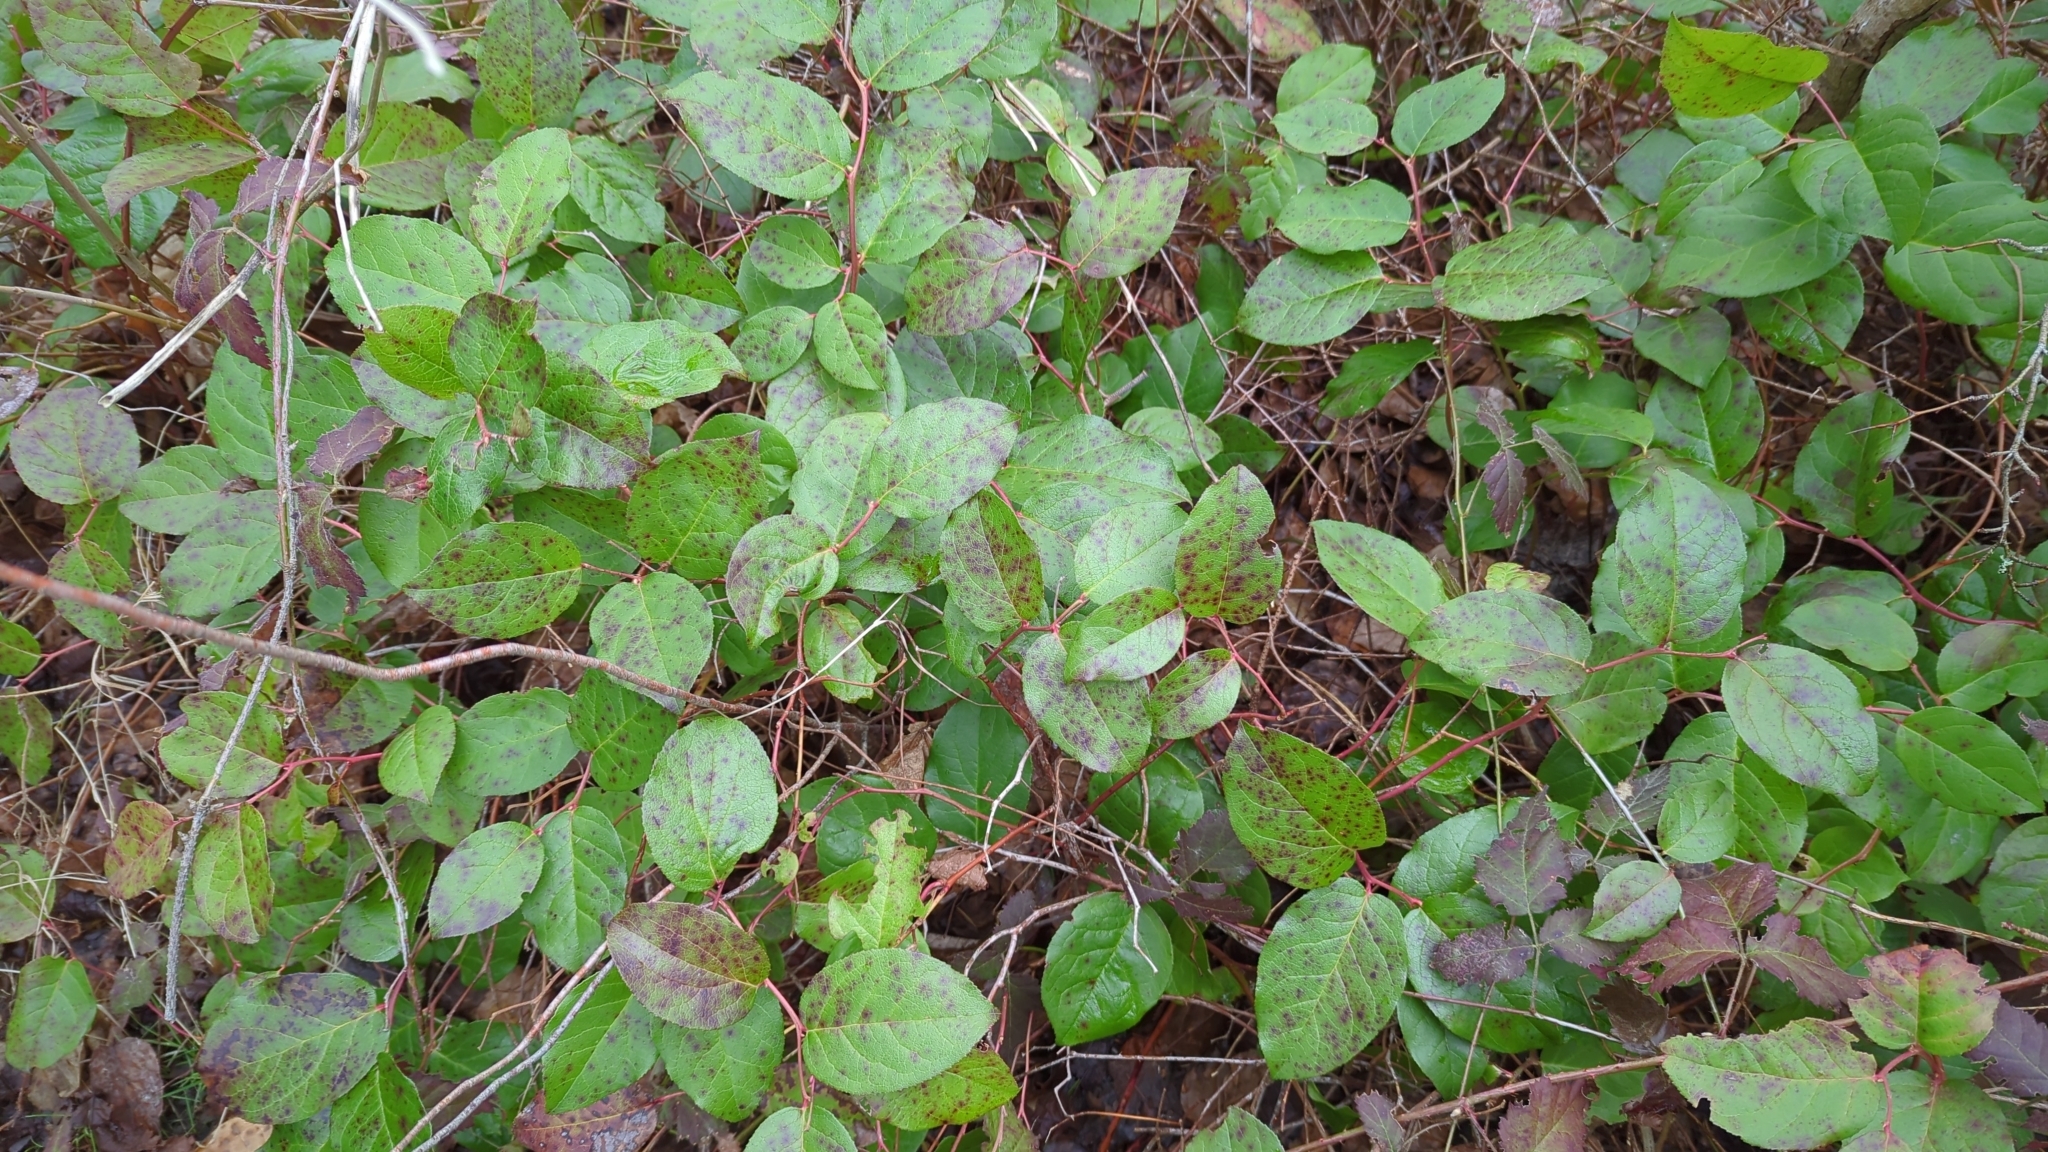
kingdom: Plantae
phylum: Tracheophyta
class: Magnoliopsida
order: Ericales
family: Ericaceae
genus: Gaultheria
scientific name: Gaultheria shallon
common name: Shallon
